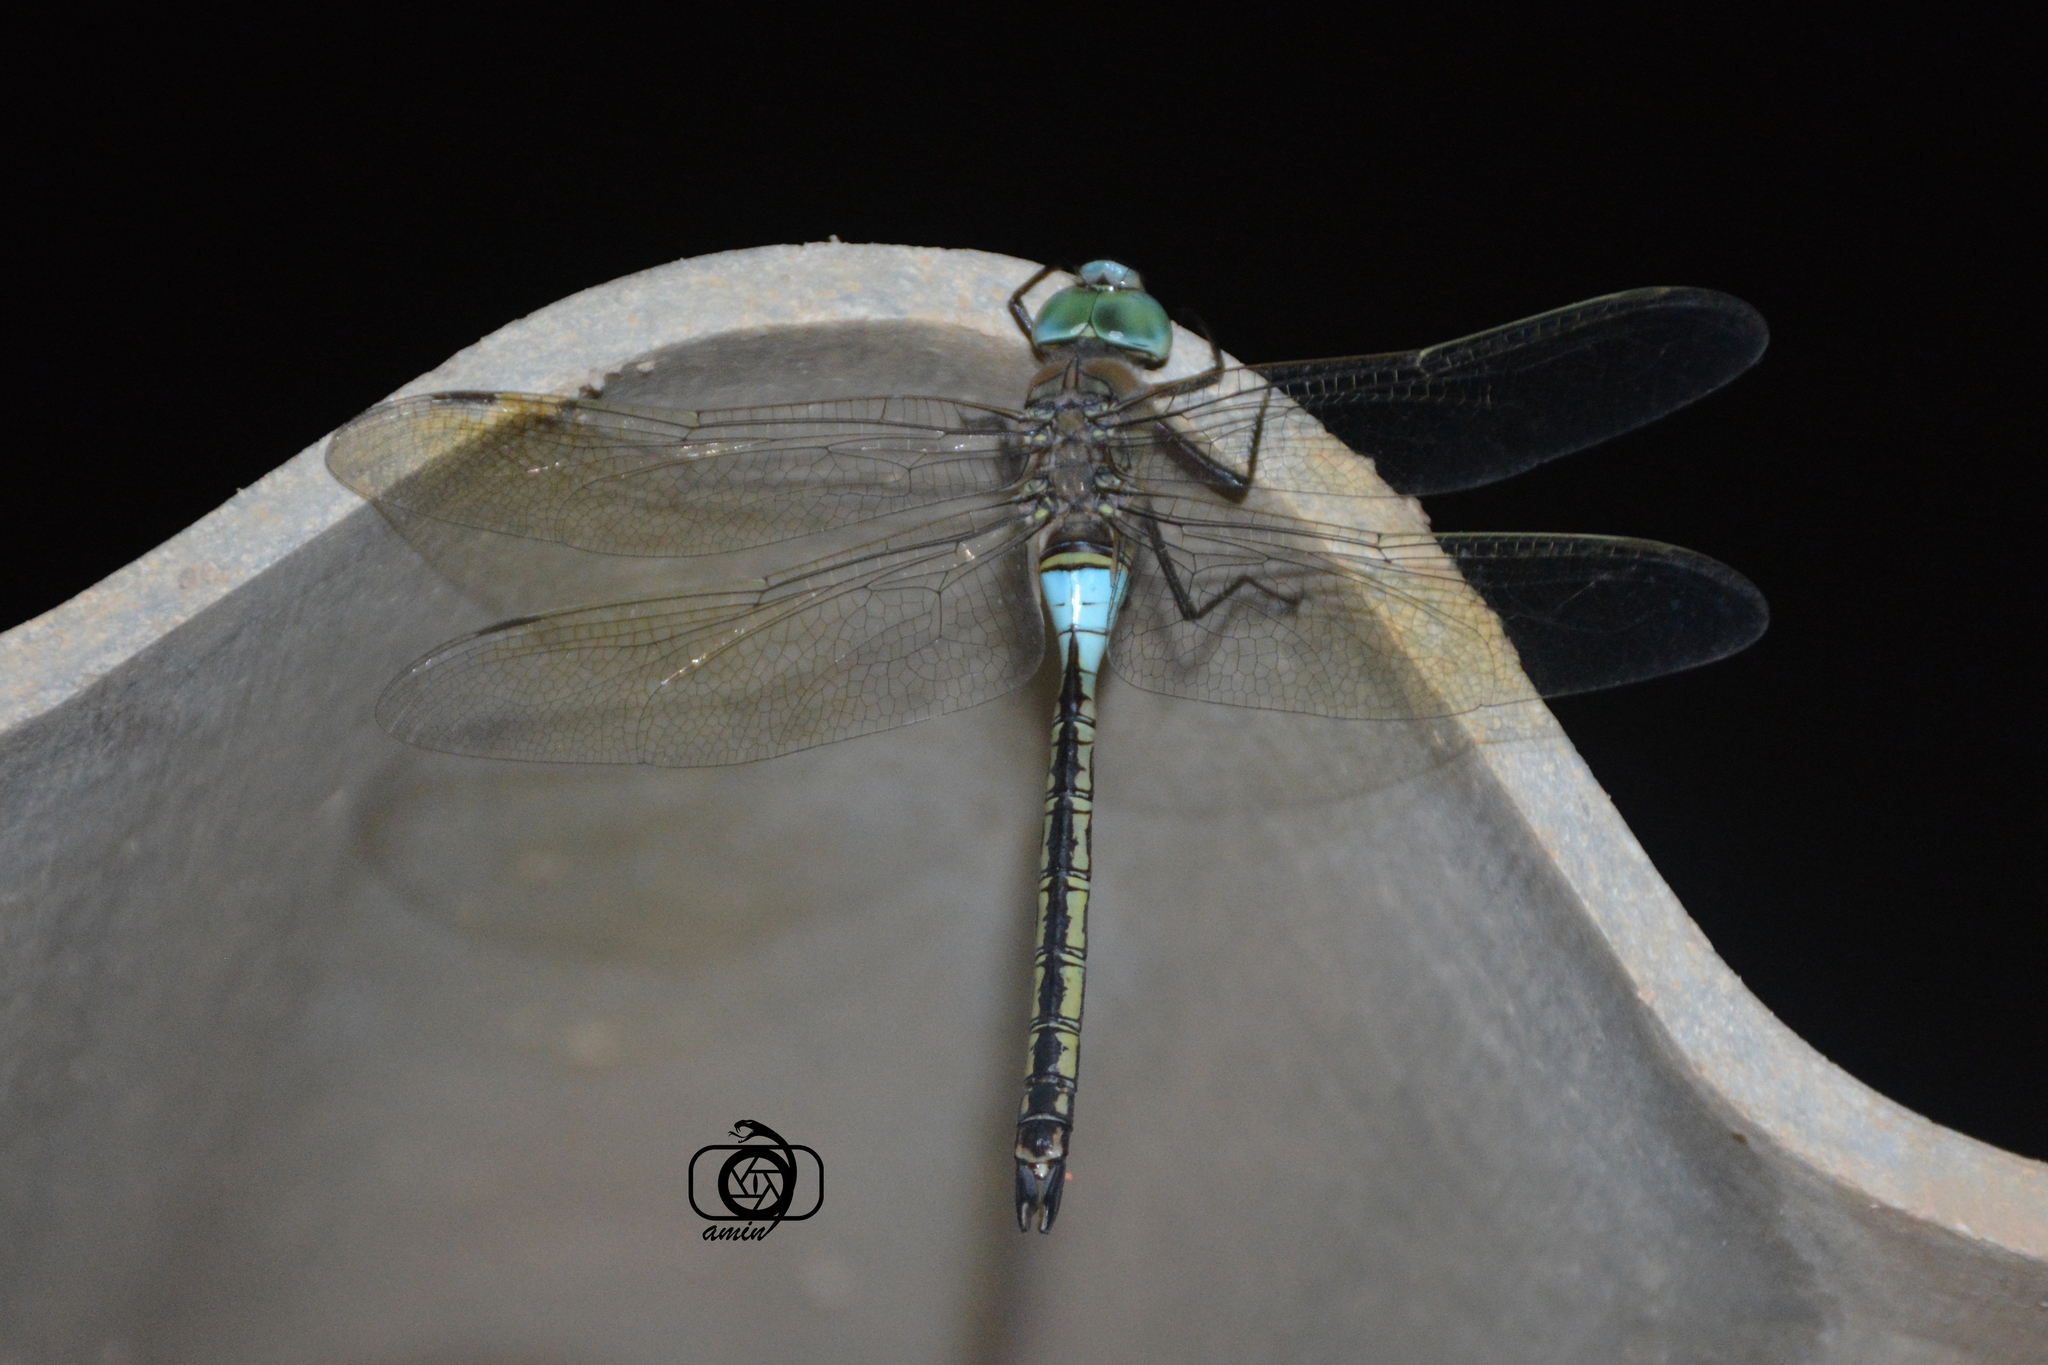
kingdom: Animalia
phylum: Arthropoda
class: Insecta
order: Odonata
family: Aeshnidae
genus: Anax
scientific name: Anax parthenope
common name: Lesser emperor
